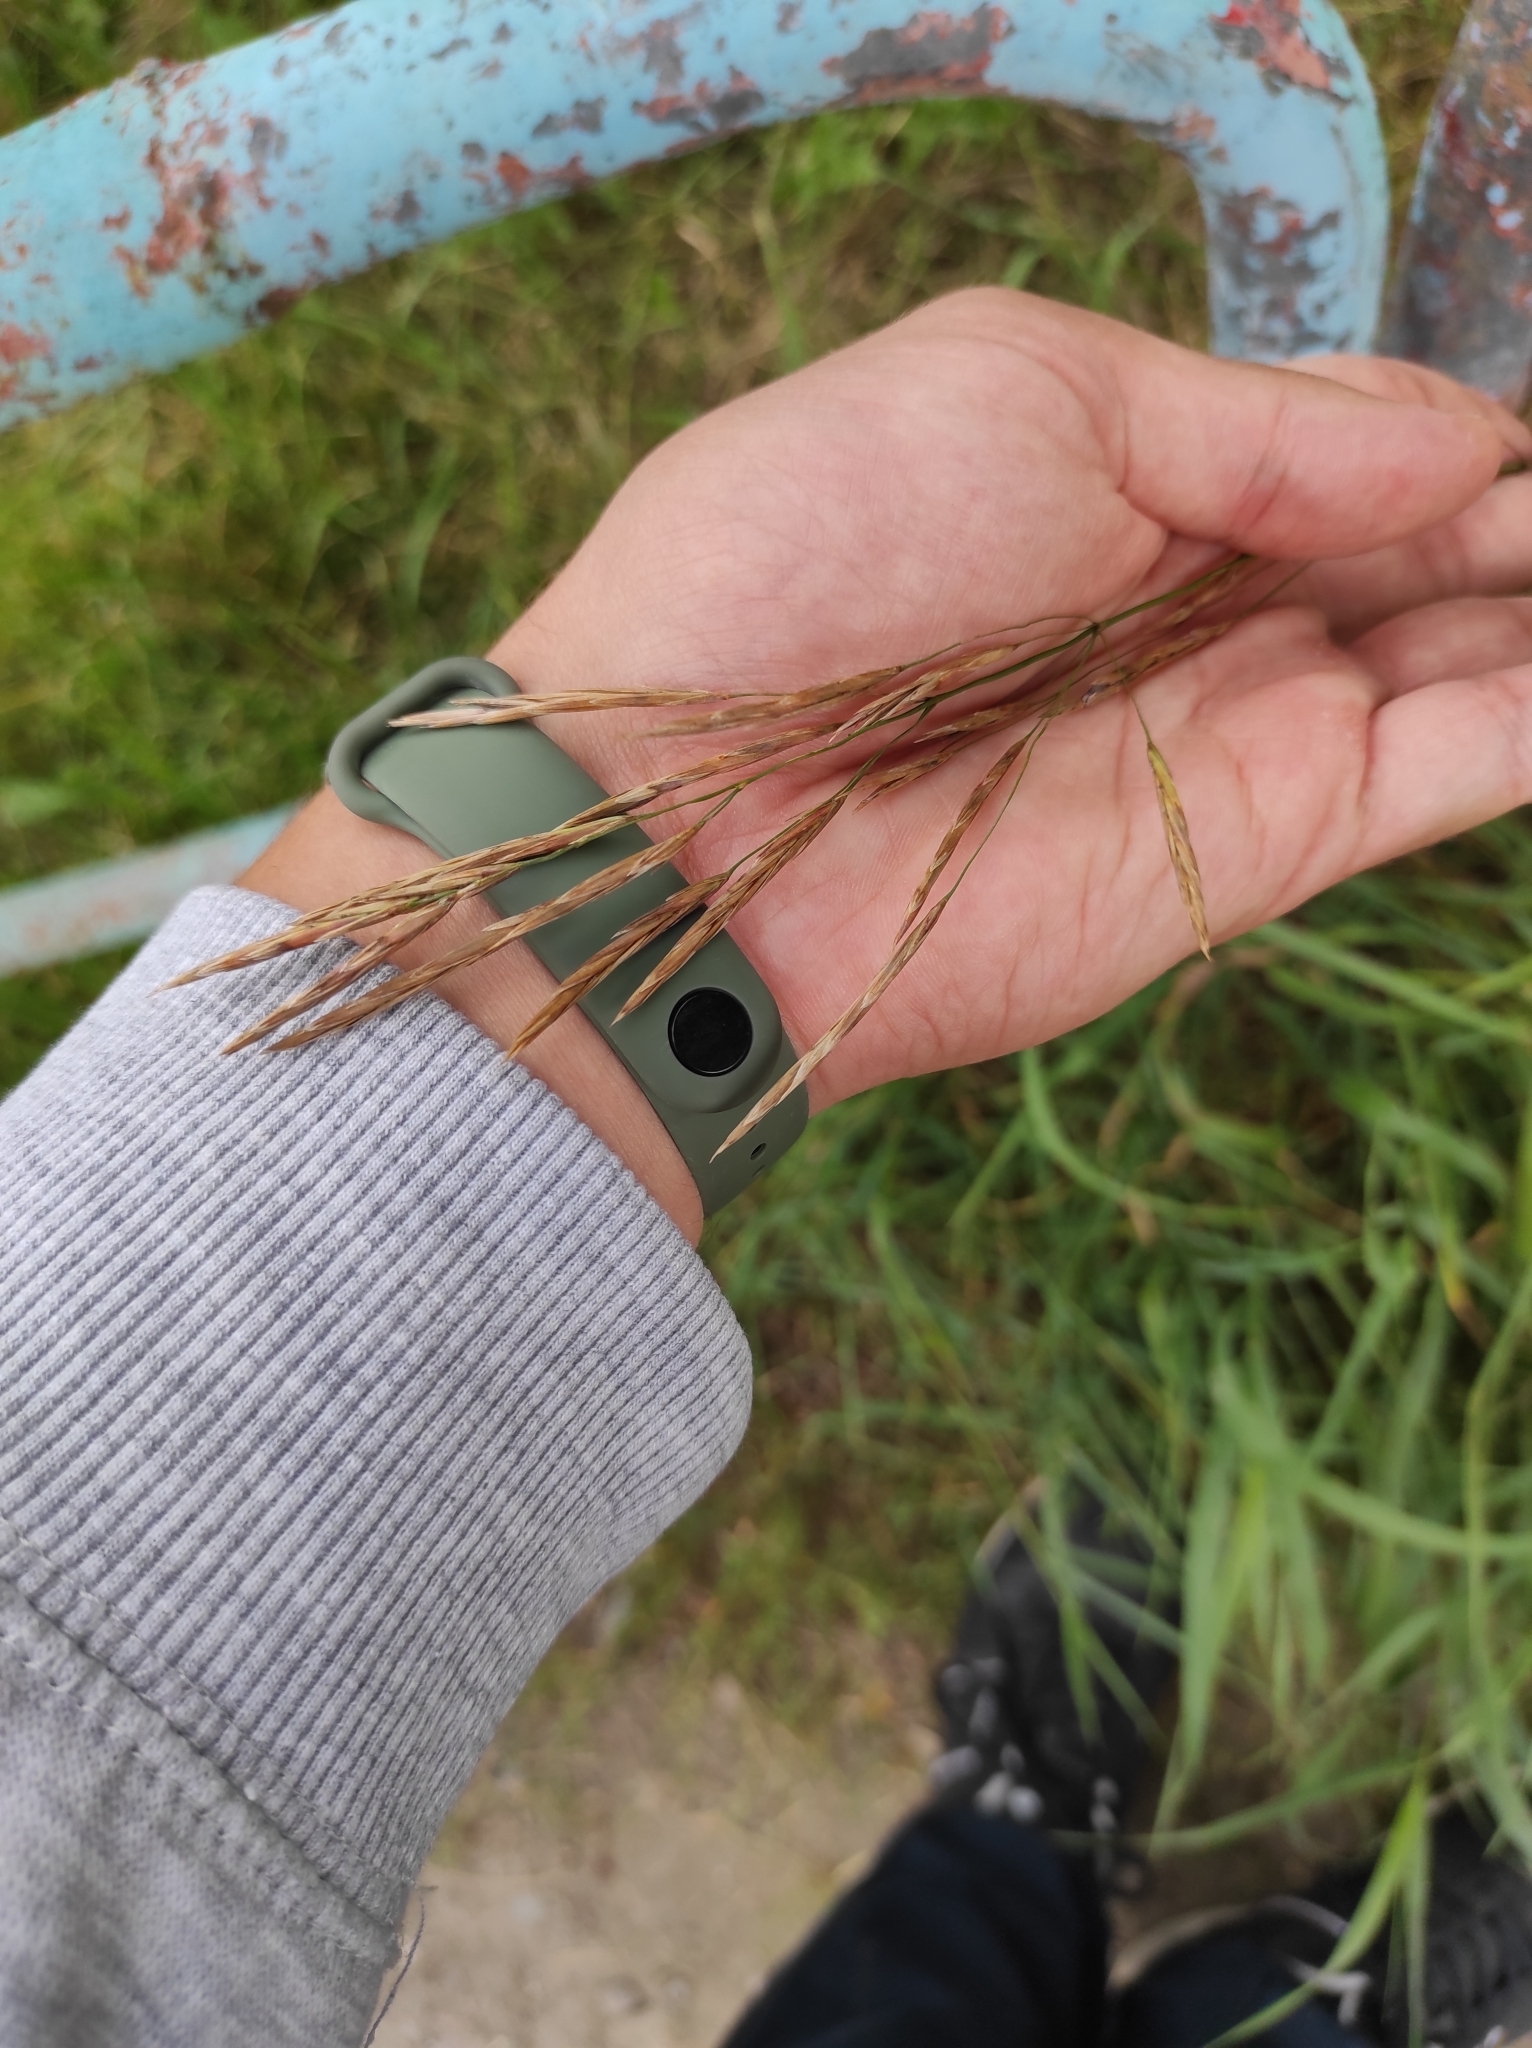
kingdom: Plantae
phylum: Tracheophyta
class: Liliopsida
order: Poales
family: Poaceae
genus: Bromus
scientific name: Bromus inermis
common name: Smooth brome
